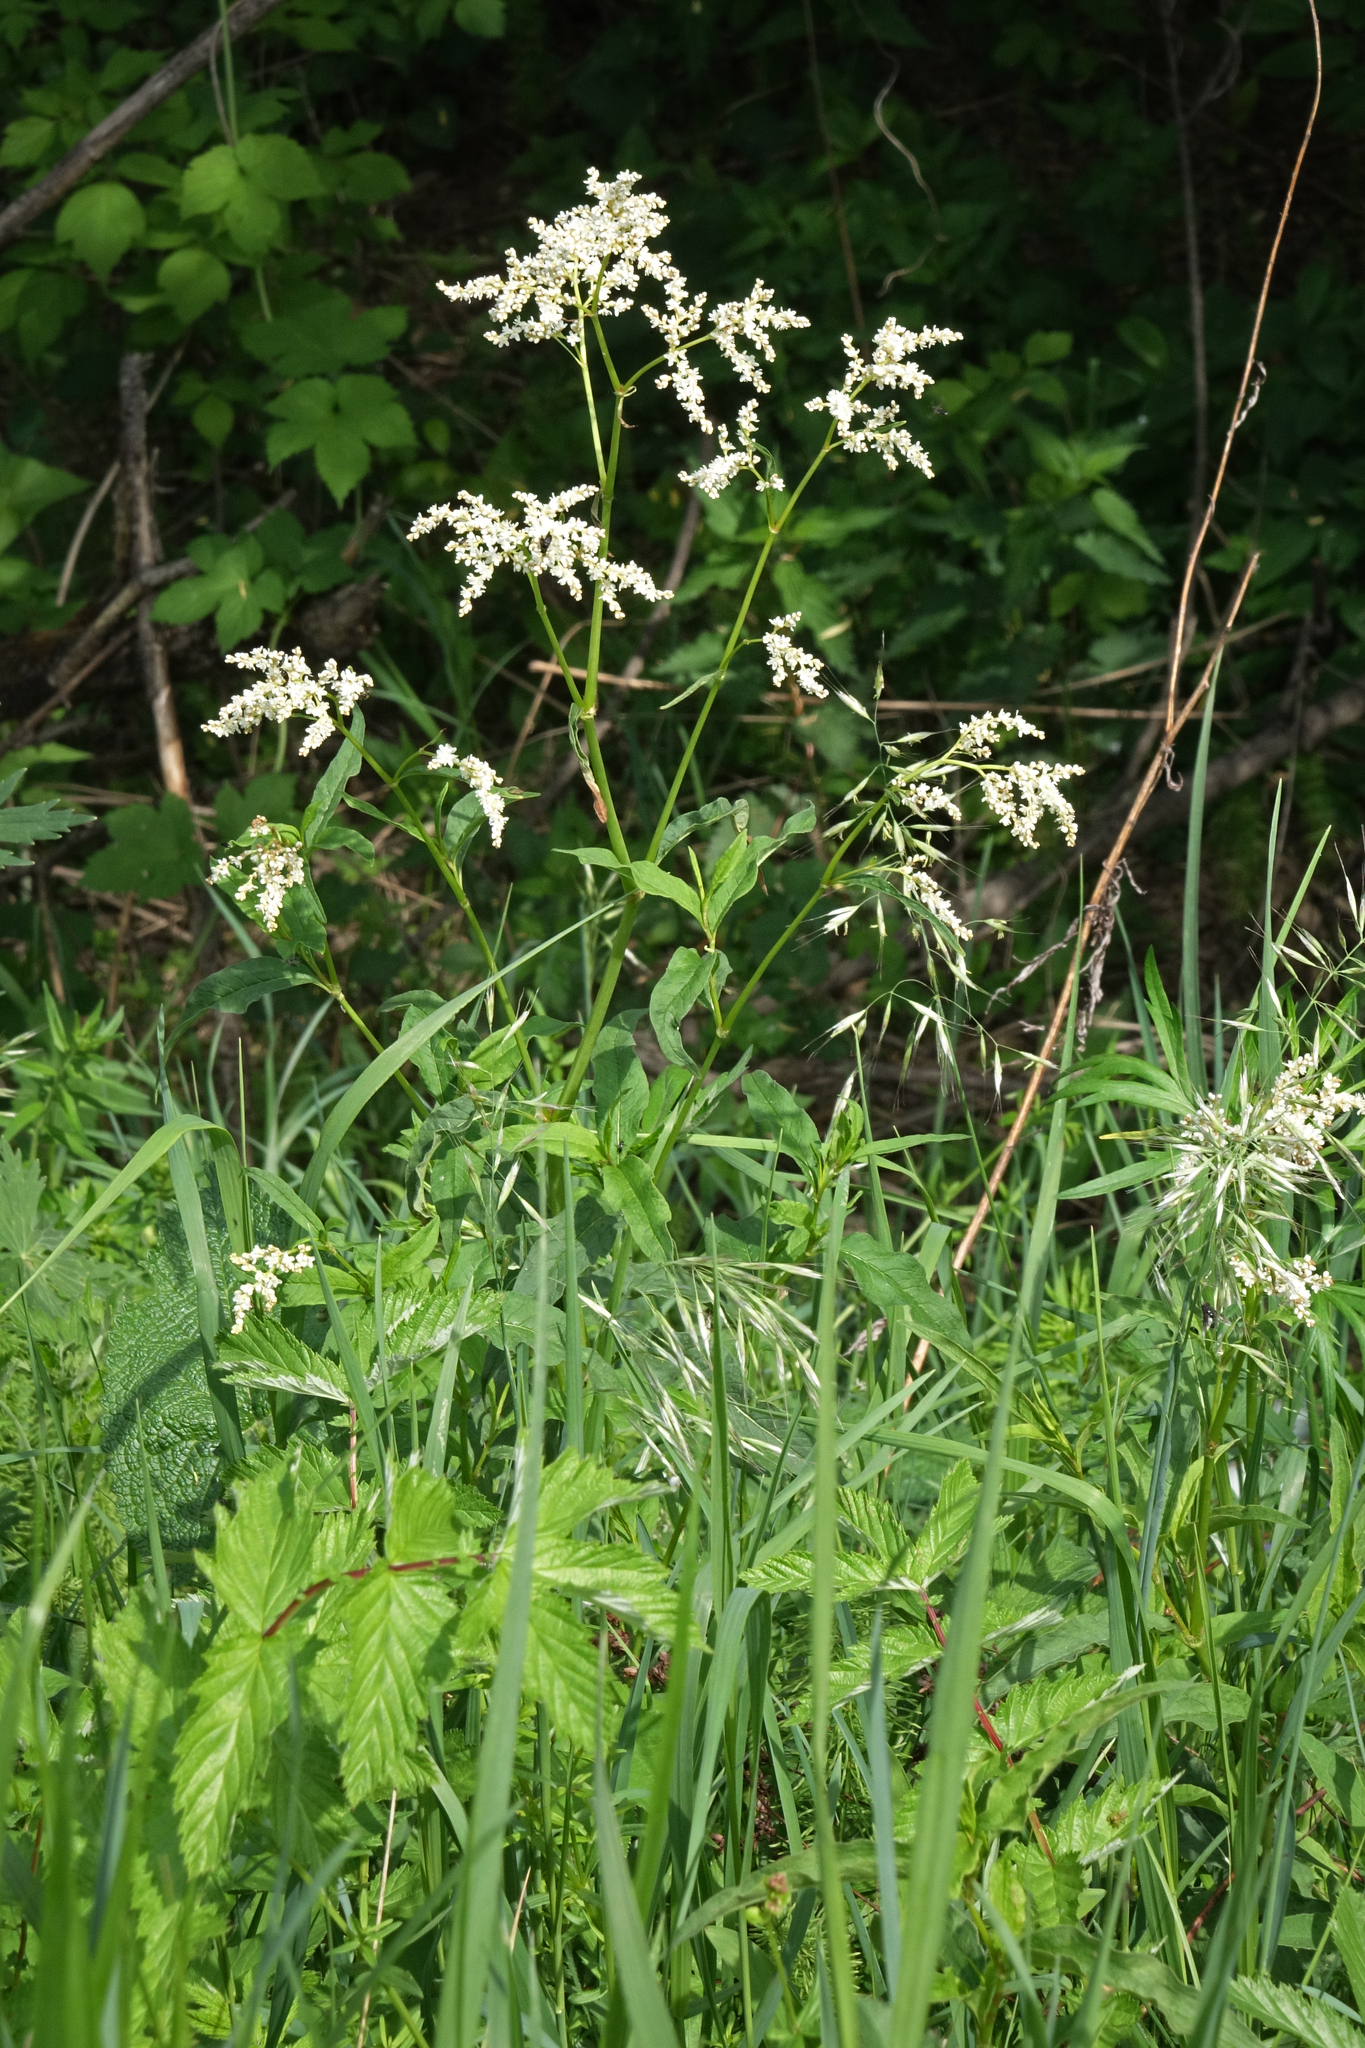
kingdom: Plantae
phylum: Tracheophyta
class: Magnoliopsida
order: Caryophyllales
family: Polygonaceae
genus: Koenigia
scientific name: Koenigia alpina
